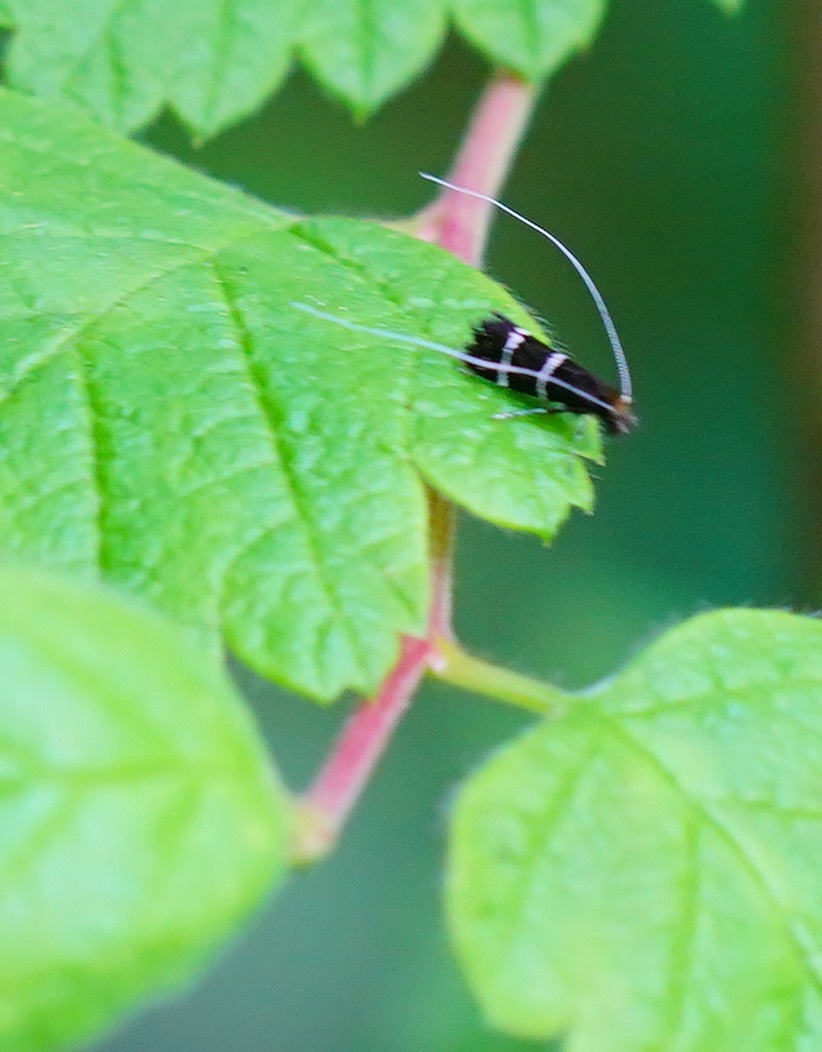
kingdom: Animalia
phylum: Arthropoda
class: Insecta
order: Lepidoptera
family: Adelidae
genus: Adela
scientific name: Adela septentrionella
